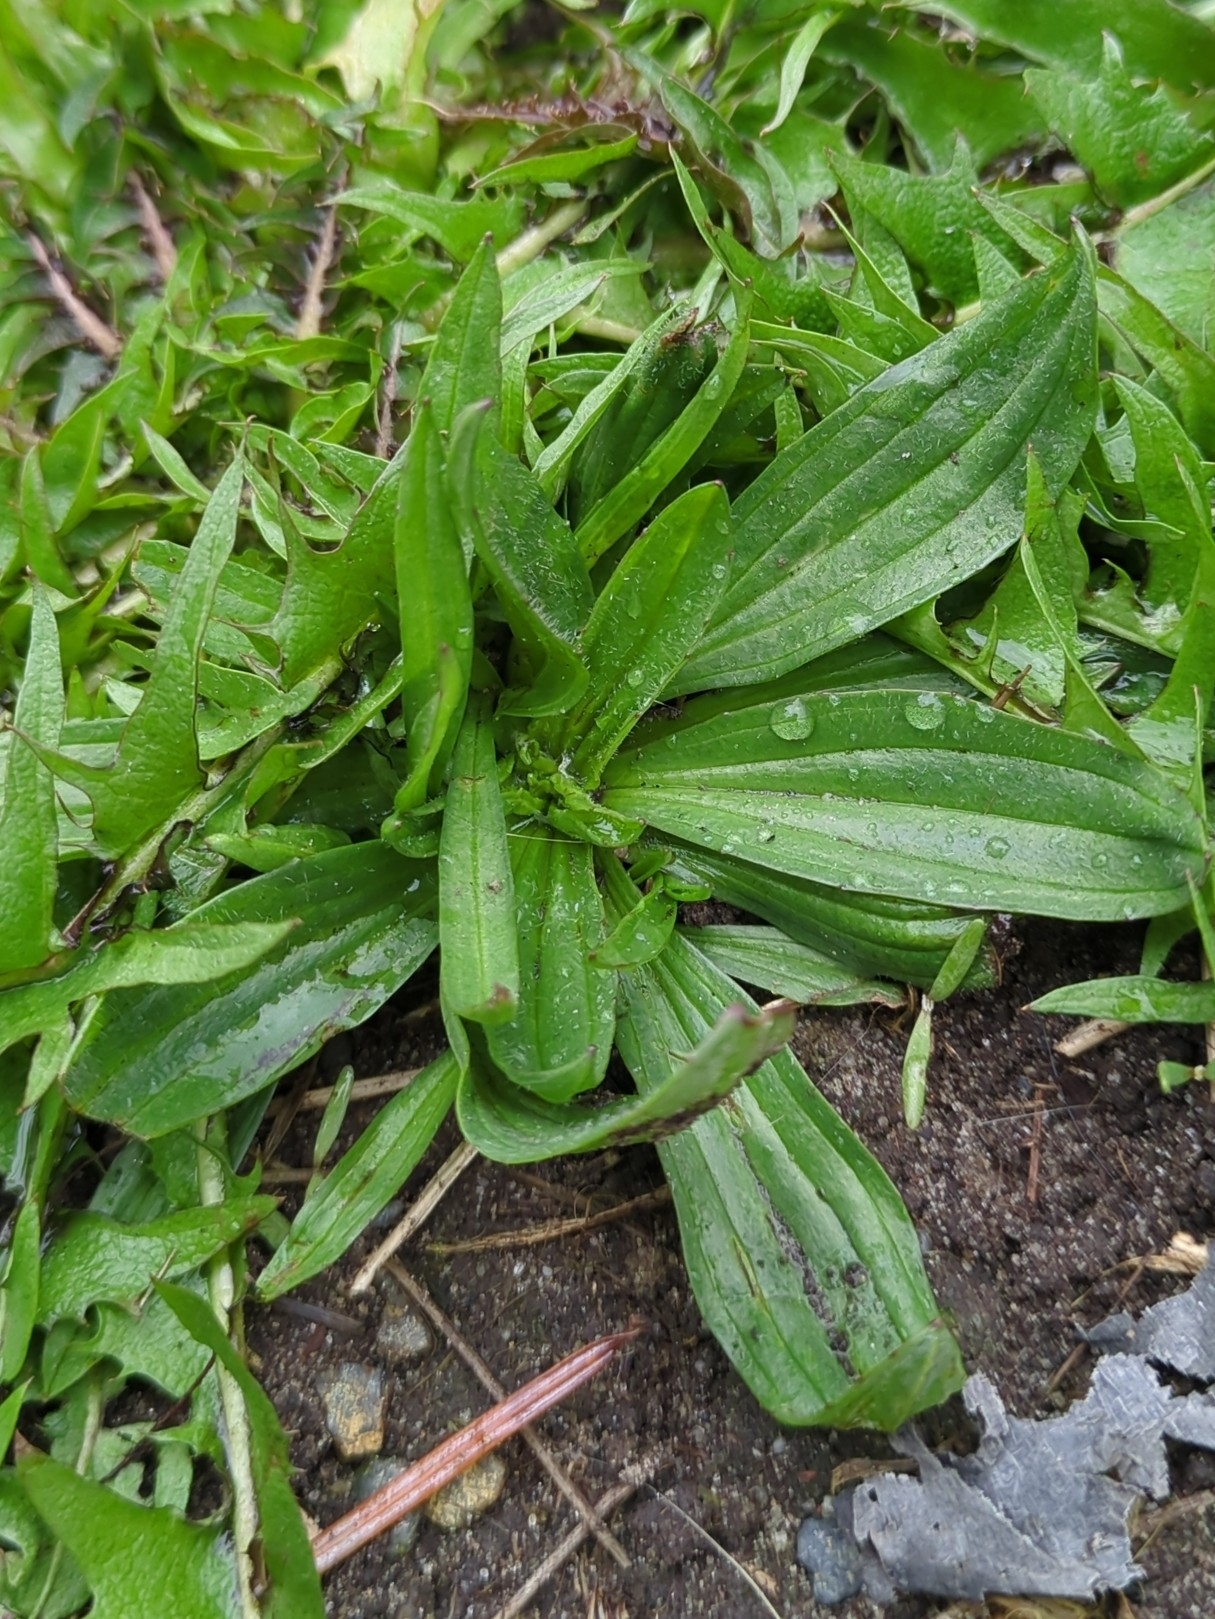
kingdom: Plantae
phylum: Tracheophyta
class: Magnoliopsida
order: Lamiales
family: Plantaginaceae
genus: Plantago
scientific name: Plantago lanceolata
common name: Ribwort plantain
